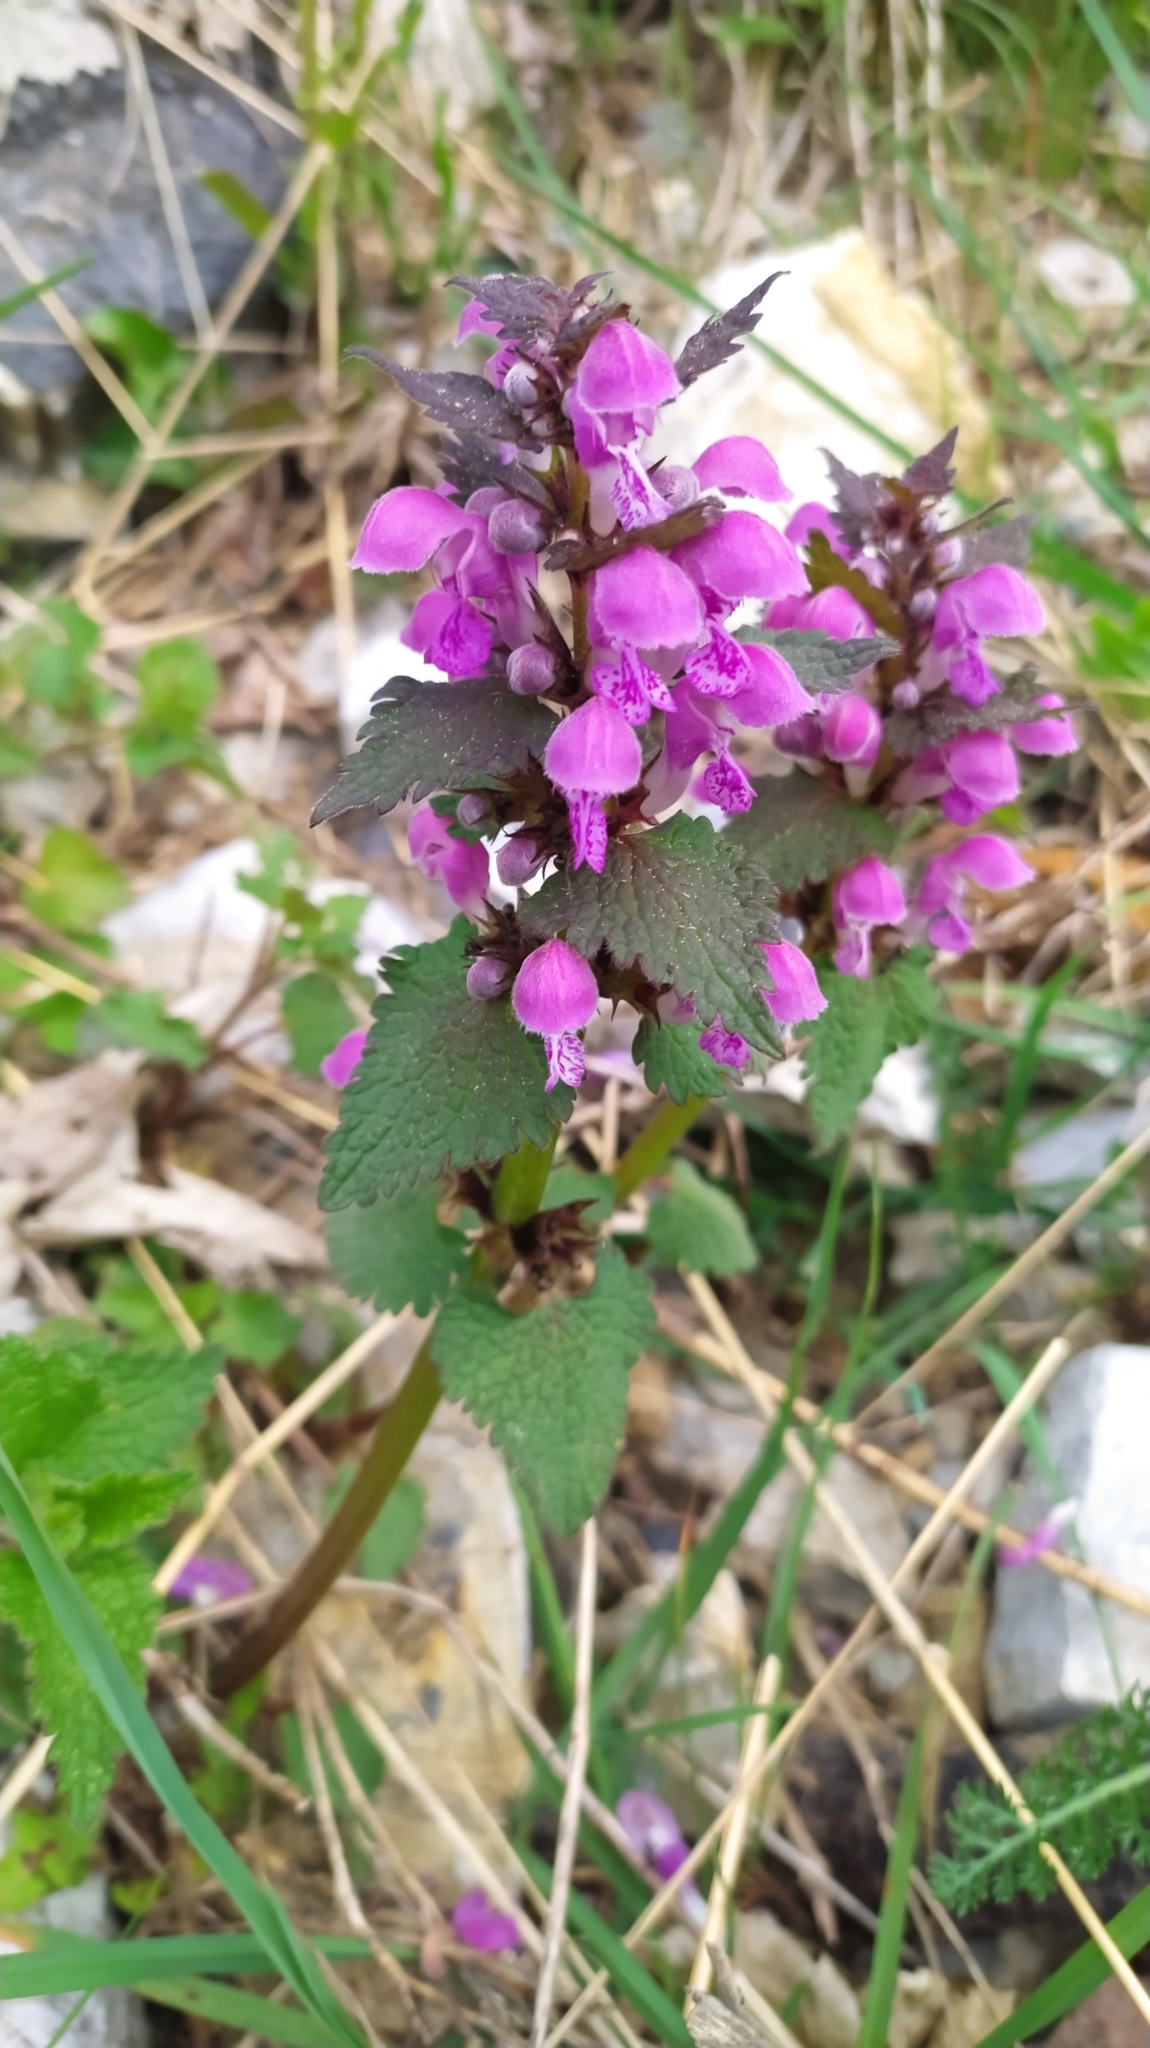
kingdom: Plantae
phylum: Tracheophyta
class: Magnoliopsida
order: Lamiales
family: Lamiaceae
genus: Lamium
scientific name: Lamium maculatum
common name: Spotted dead-nettle
